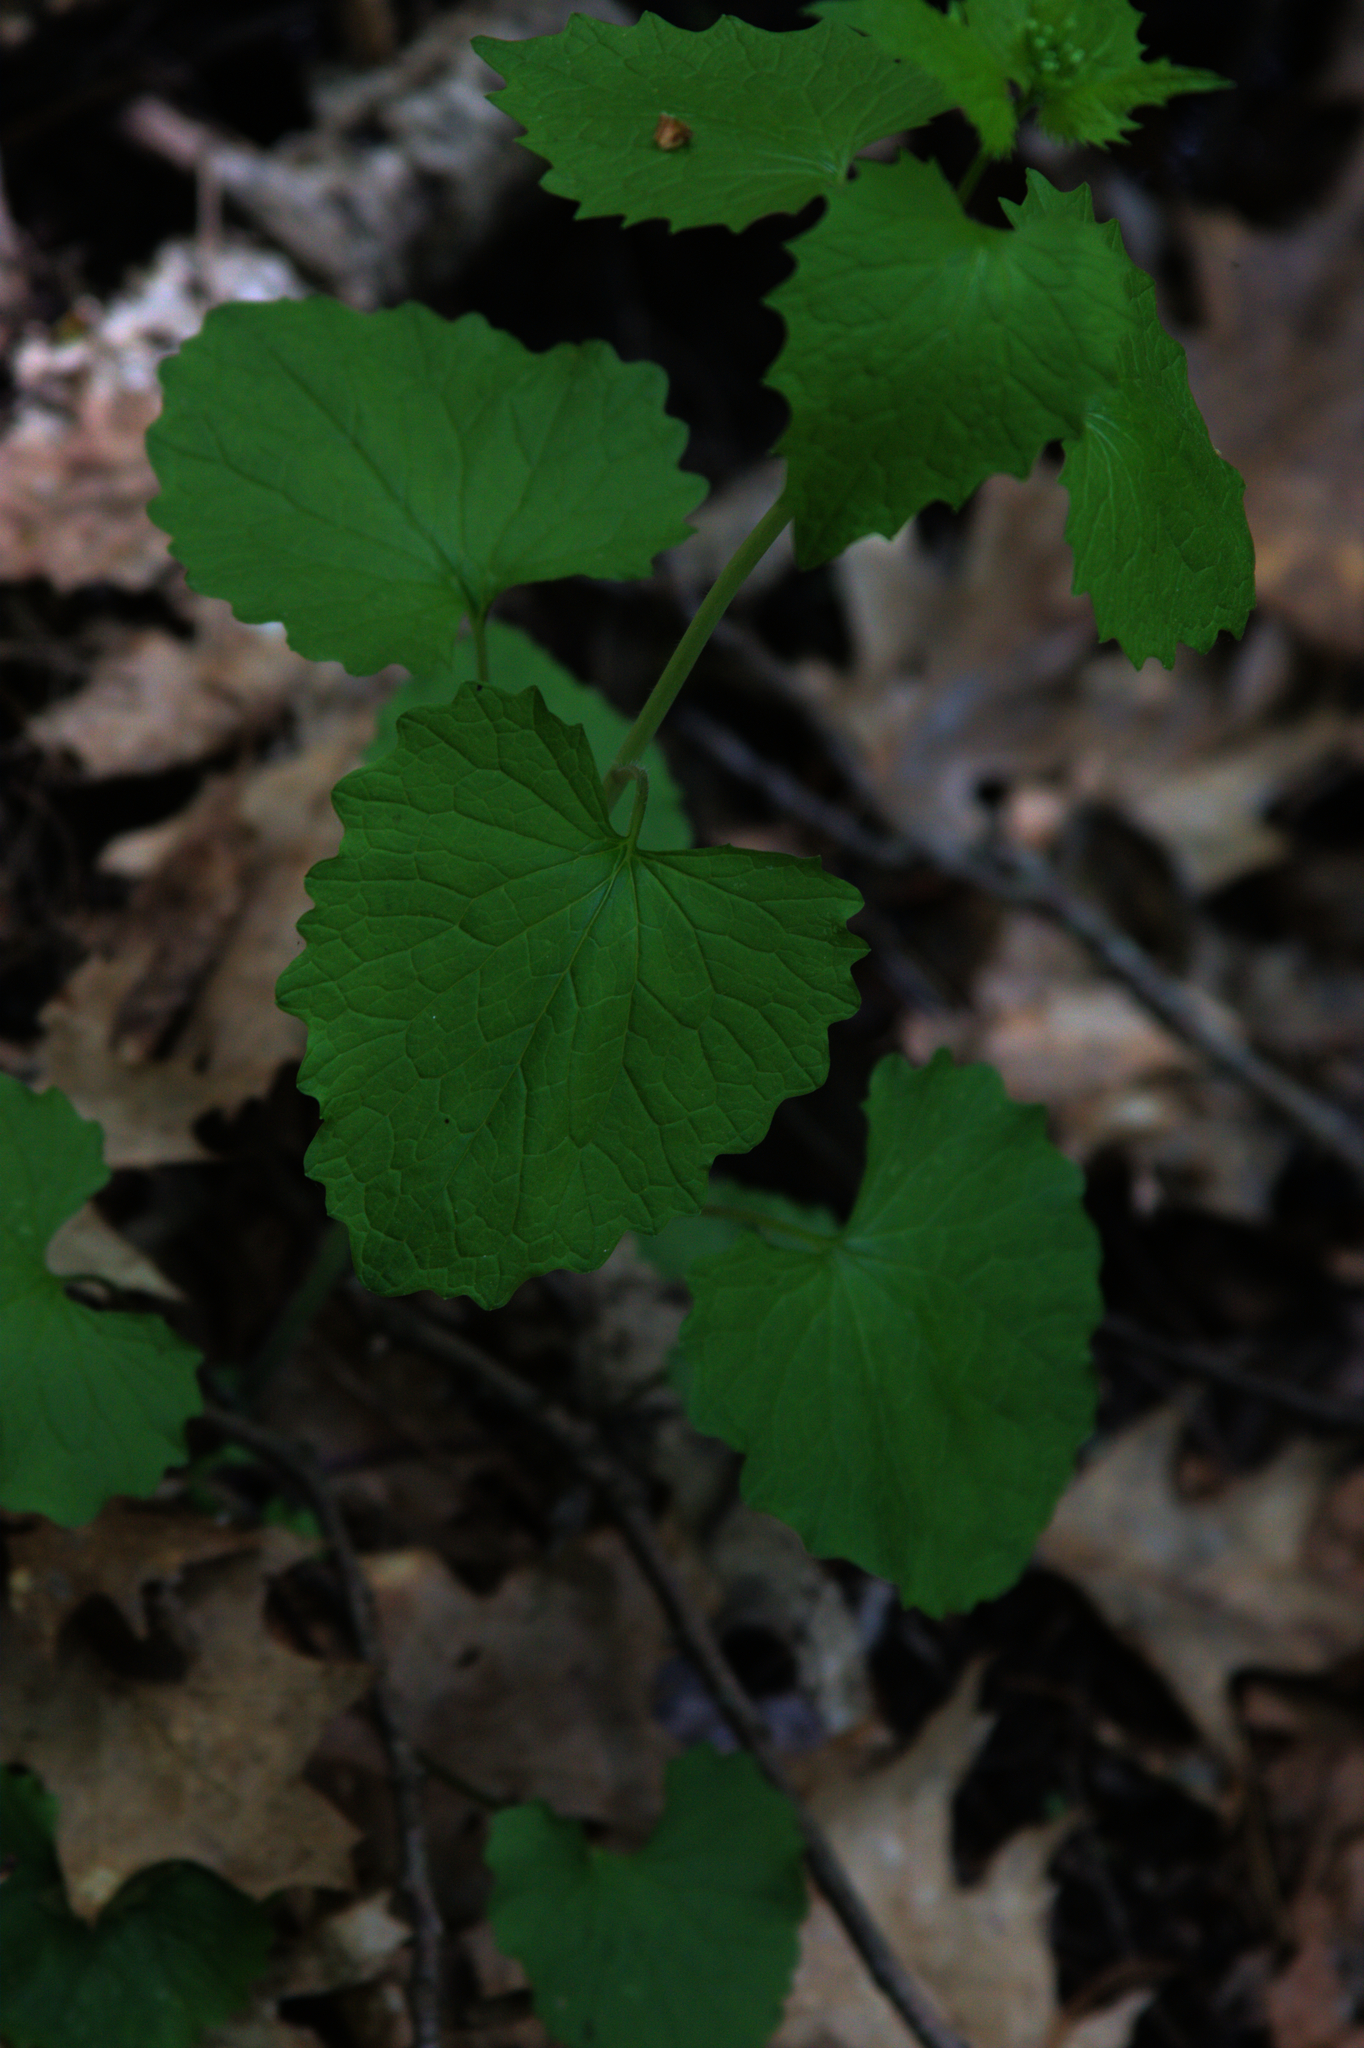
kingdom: Plantae
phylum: Tracheophyta
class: Magnoliopsida
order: Brassicales
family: Brassicaceae
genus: Alliaria
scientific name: Alliaria petiolata
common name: Garlic mustard
